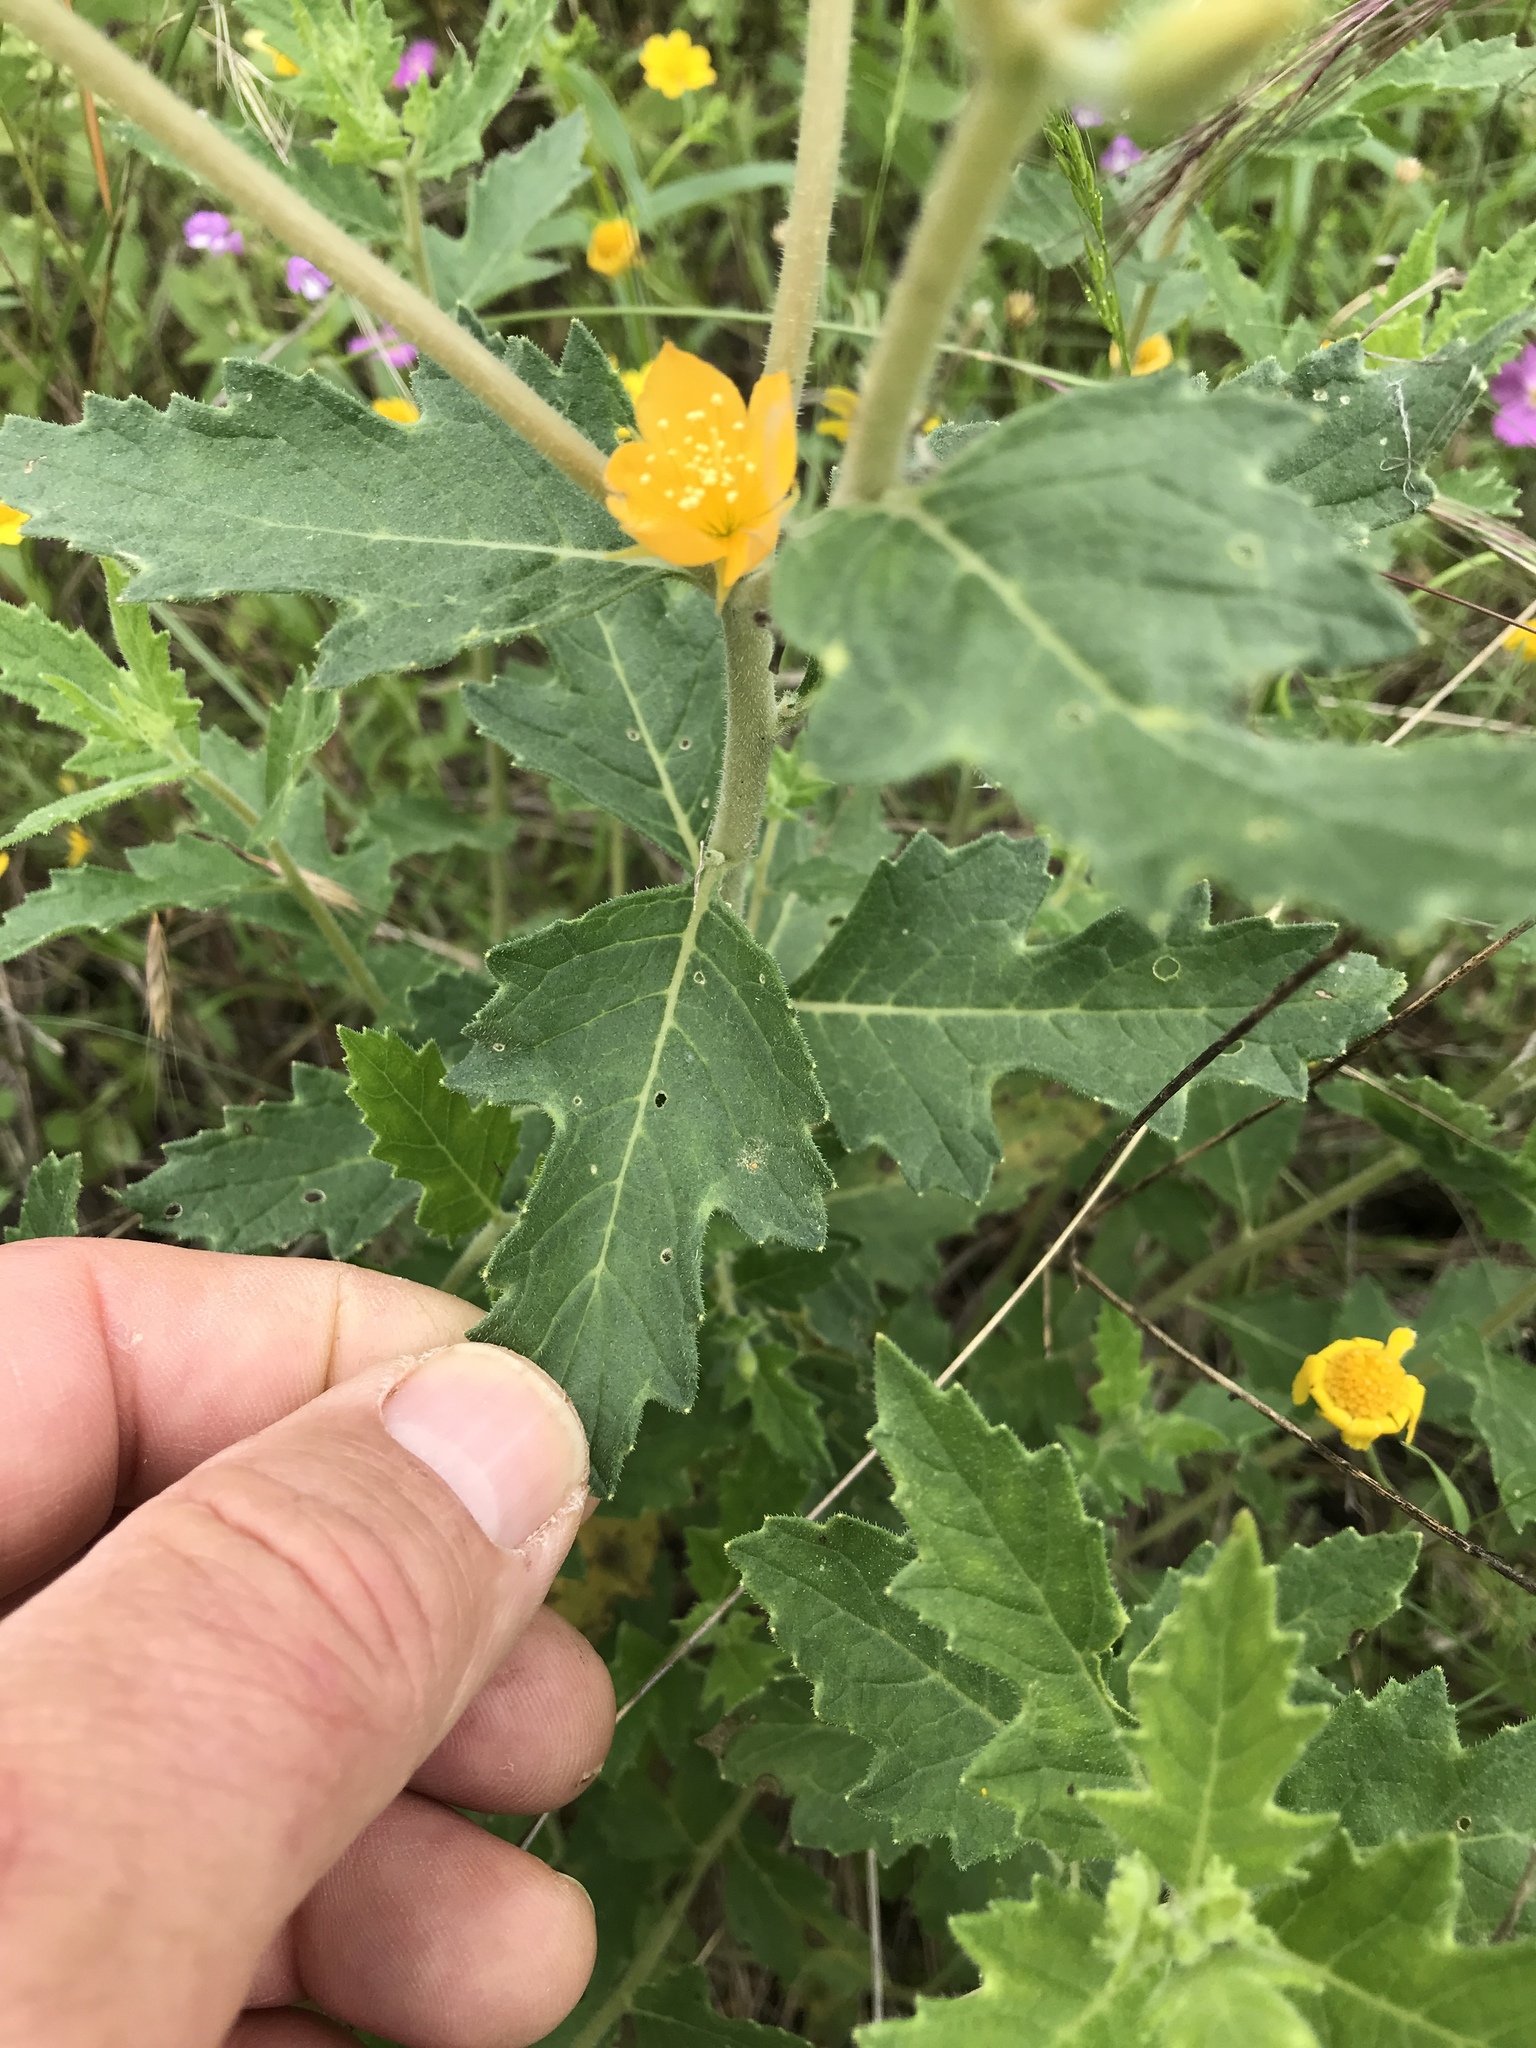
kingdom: Plantae
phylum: Tracheophyta
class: Magnoliopsida
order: Cornales
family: Loasaceae
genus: Mentzelia
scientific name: Mentzelia oligosperma
